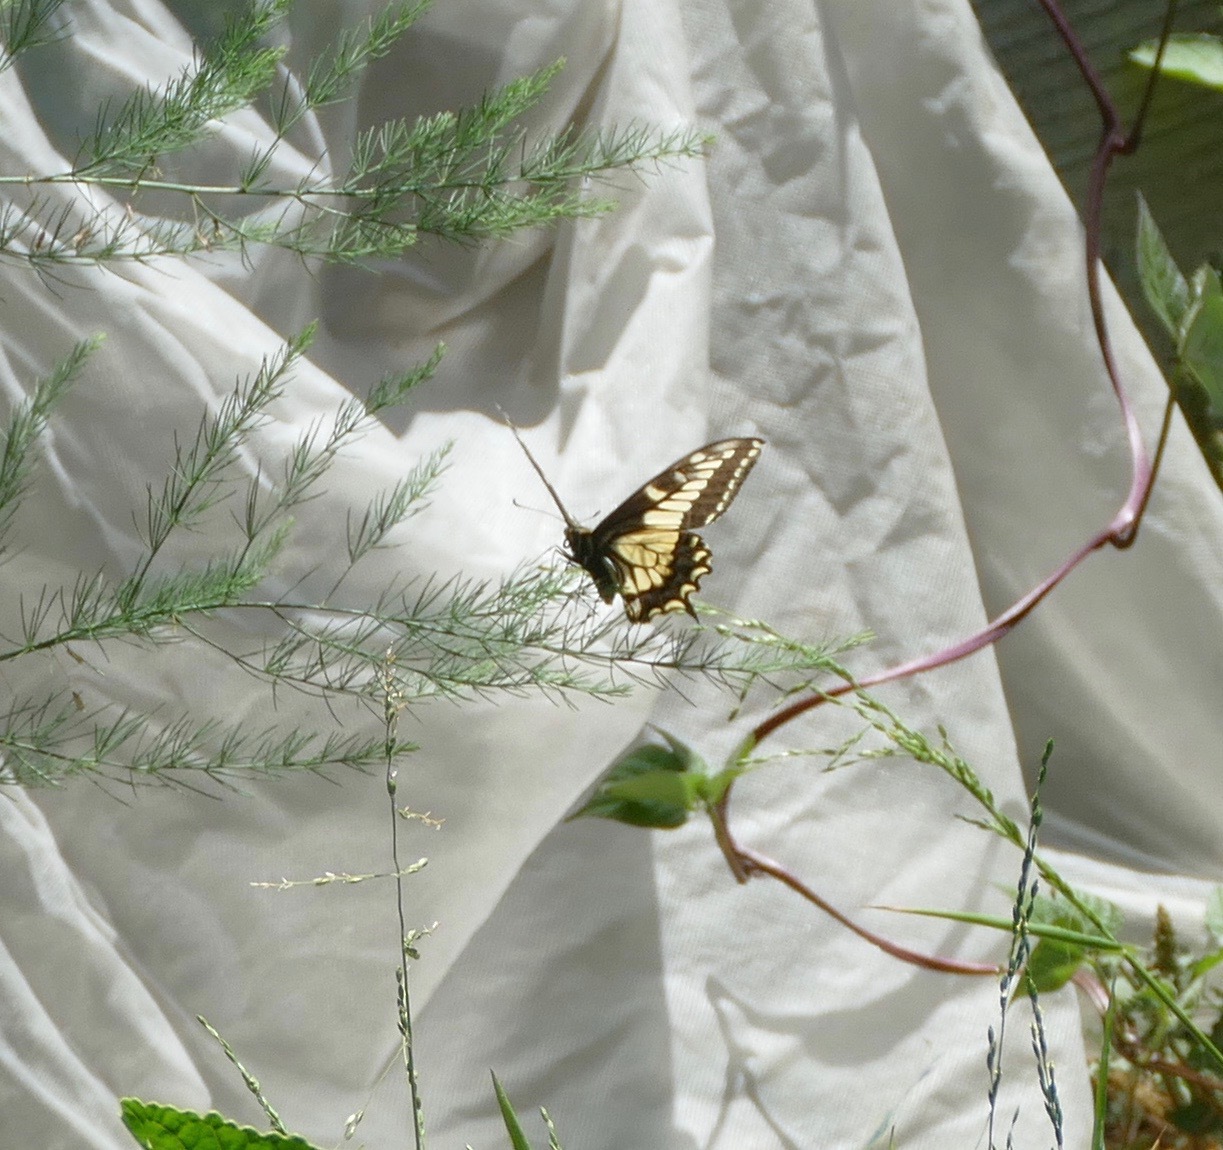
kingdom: Animalia
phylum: Arthropoda
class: Insecta
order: Lepidoptera
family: Papilionidae
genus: Papilio
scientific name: Papilio zelicaon
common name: Anise swallowtail
